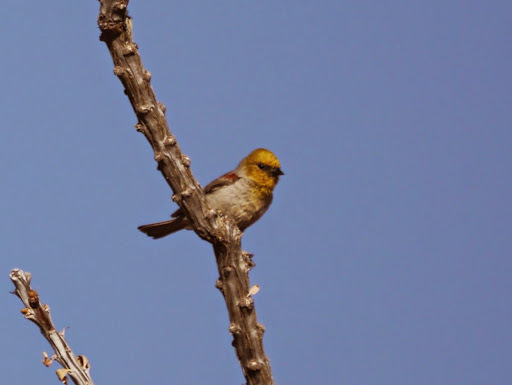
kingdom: Animalia
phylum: Chordata
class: Aves
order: Passeriformes
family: Remizidae
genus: Auriparus
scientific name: Auriparus flaviceps
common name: Verdin
